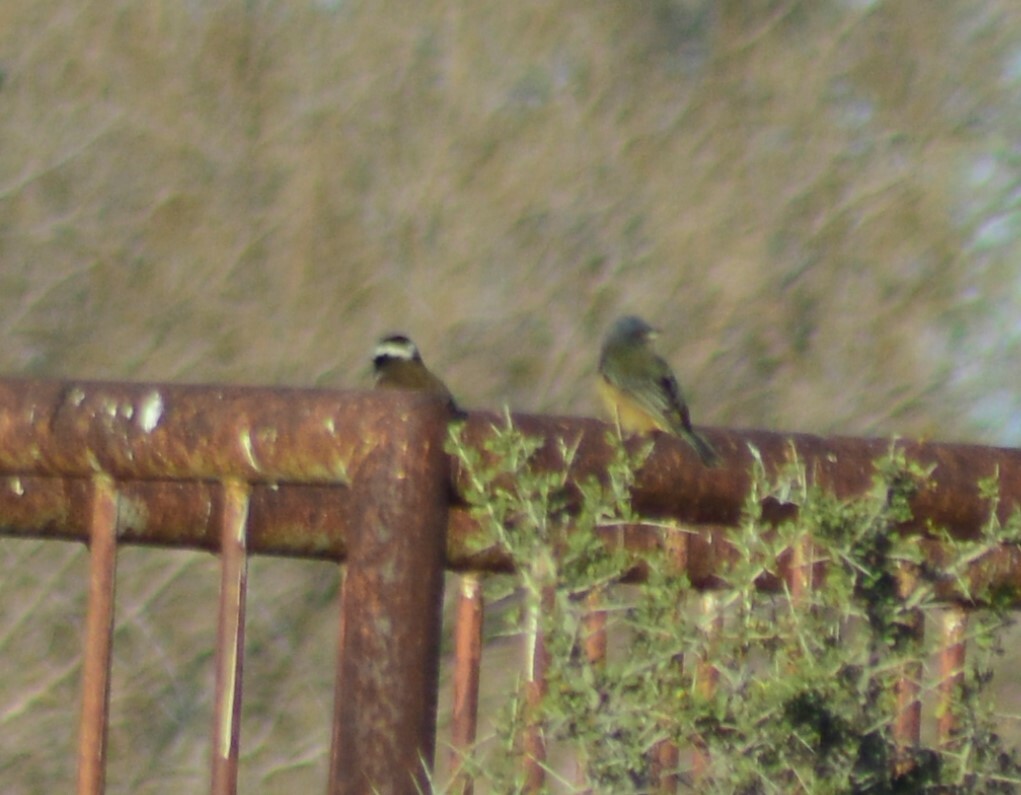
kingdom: Animalia
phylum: Chordata
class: Aves
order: Passeriformes
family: Thraupidae
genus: Phrygilus
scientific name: Phrygilus gayi
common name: Grey-hooded sierra finch
